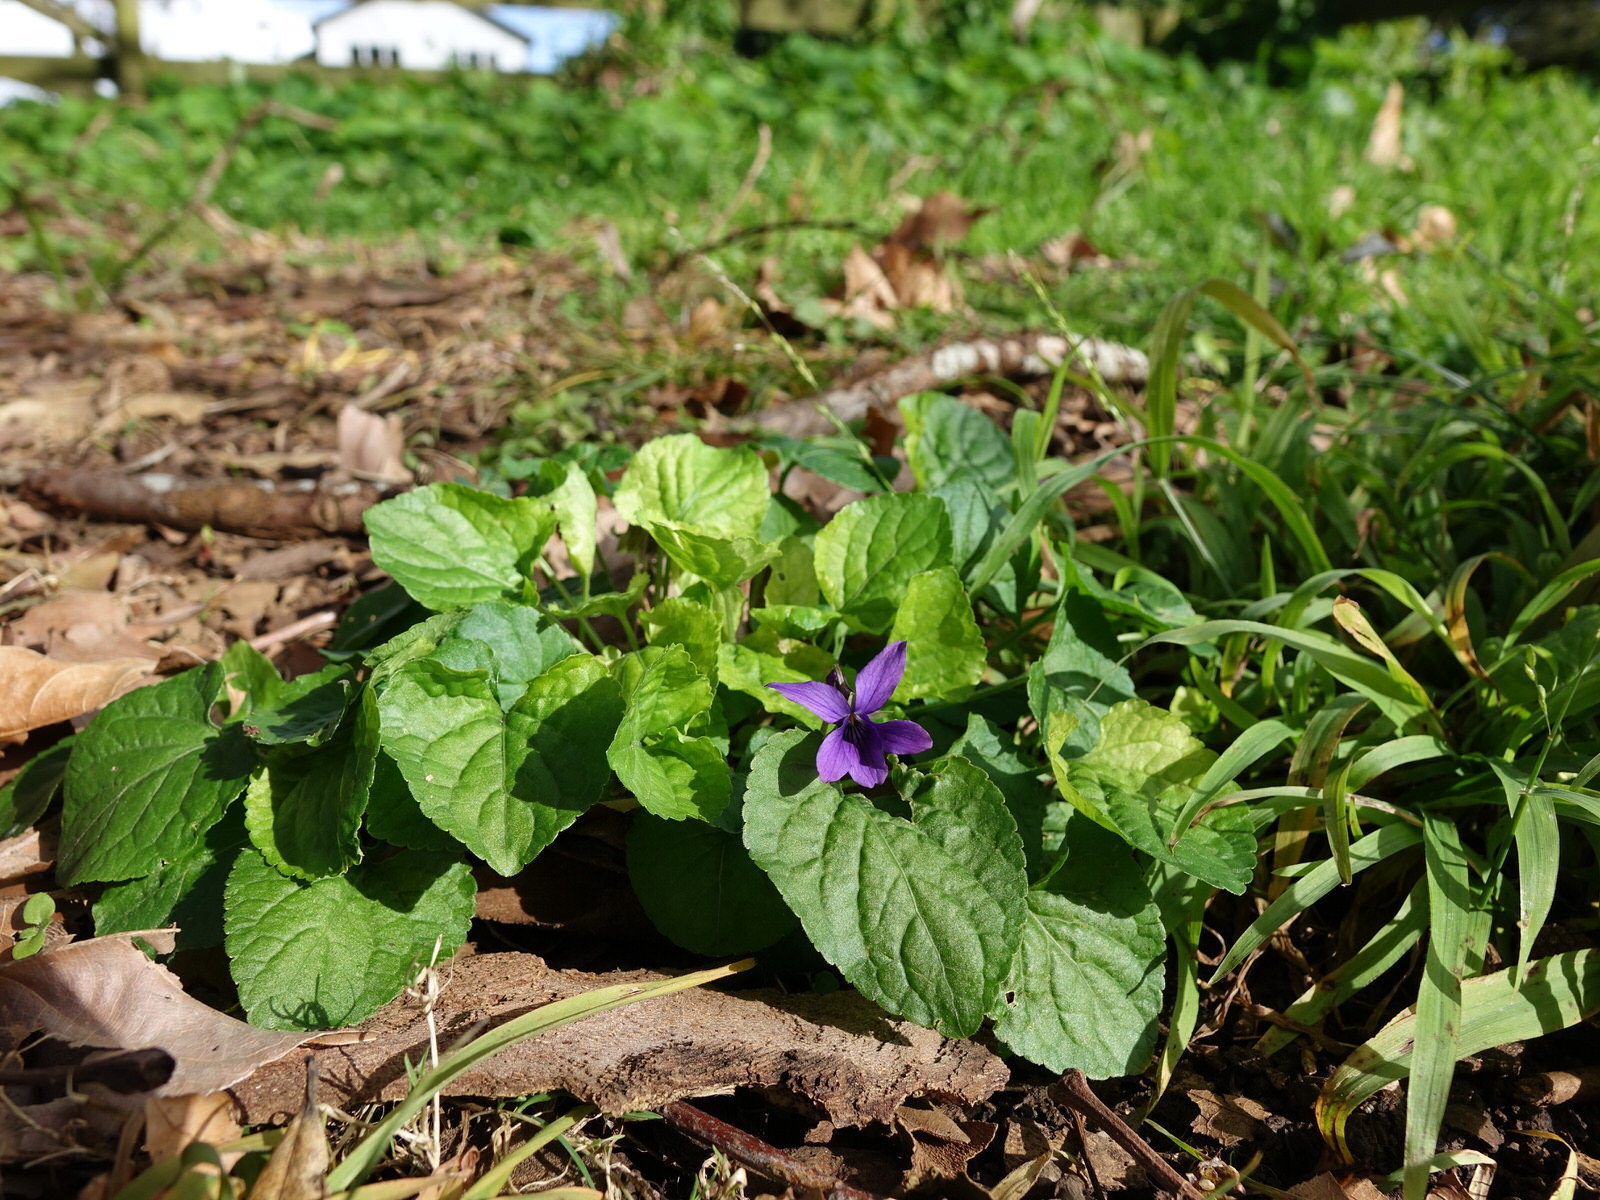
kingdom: Plantae
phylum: Tracheophyta
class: Magnoliopsida
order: Malpighiales
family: Violaceae
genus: Viola
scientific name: Viola odorata
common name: Sweet violet
